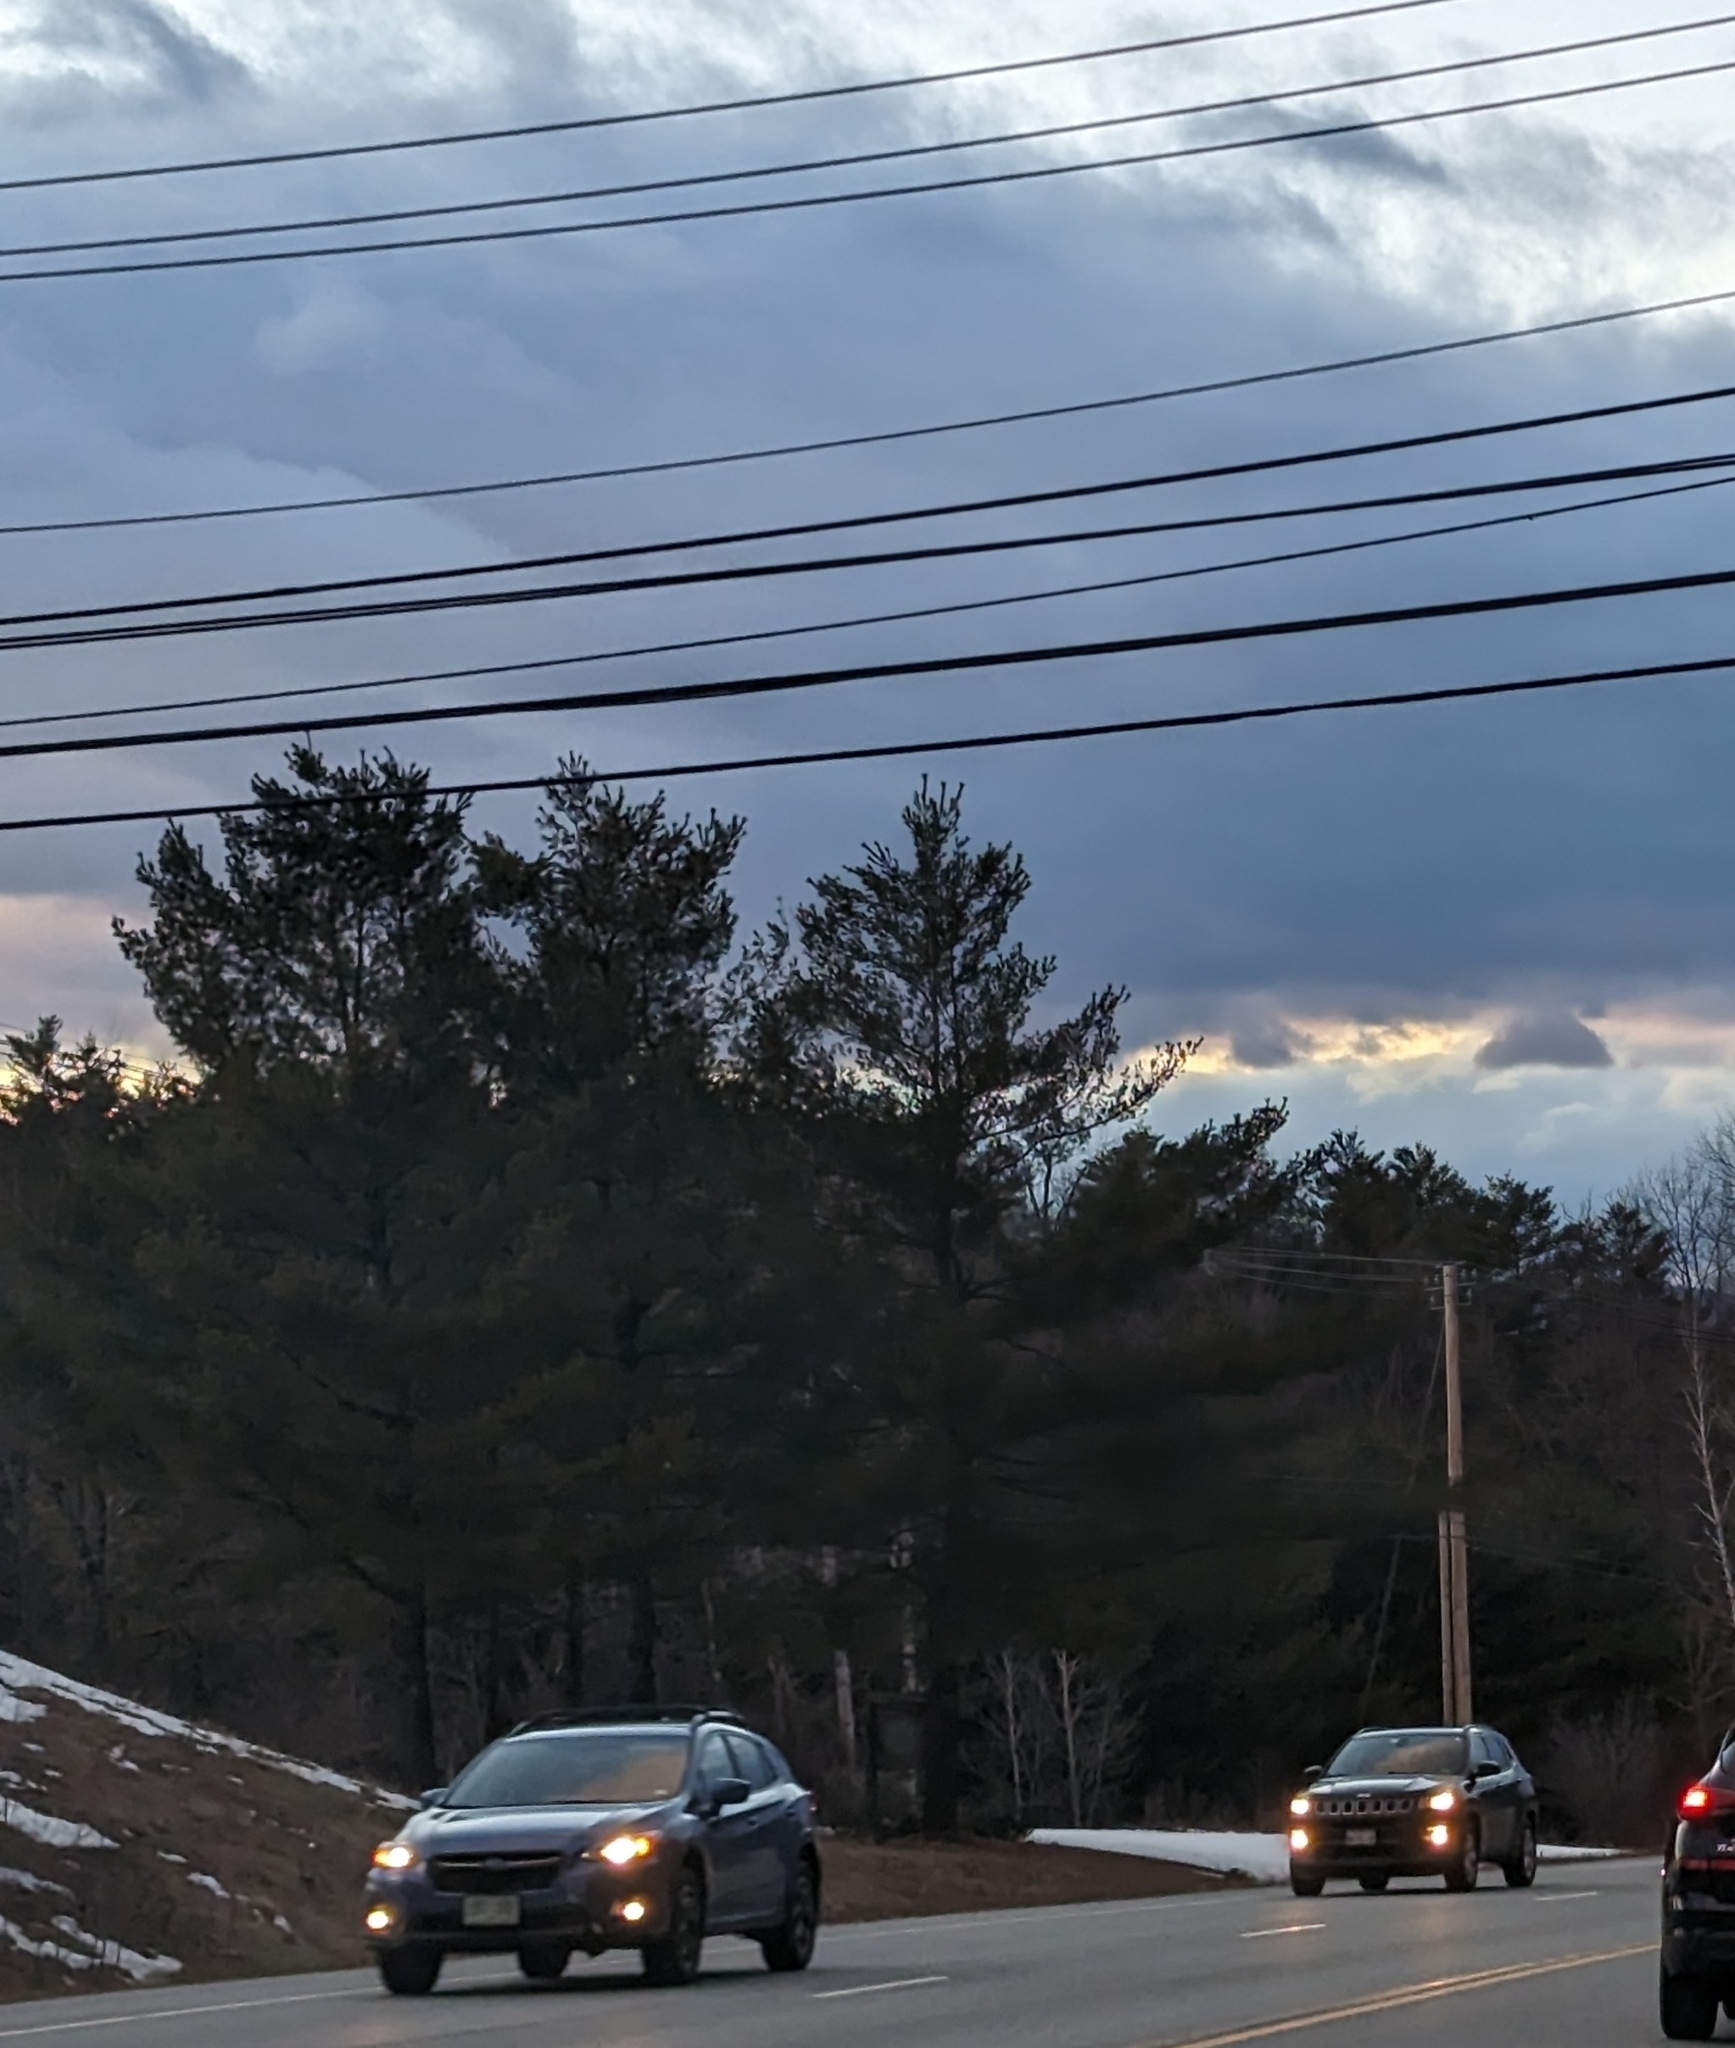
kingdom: Plantae
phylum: Tracheophyta
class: Pinopsida
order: Pinales
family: Pinaceae
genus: Pinus
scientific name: Pinus strobus
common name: Weymouth pine
